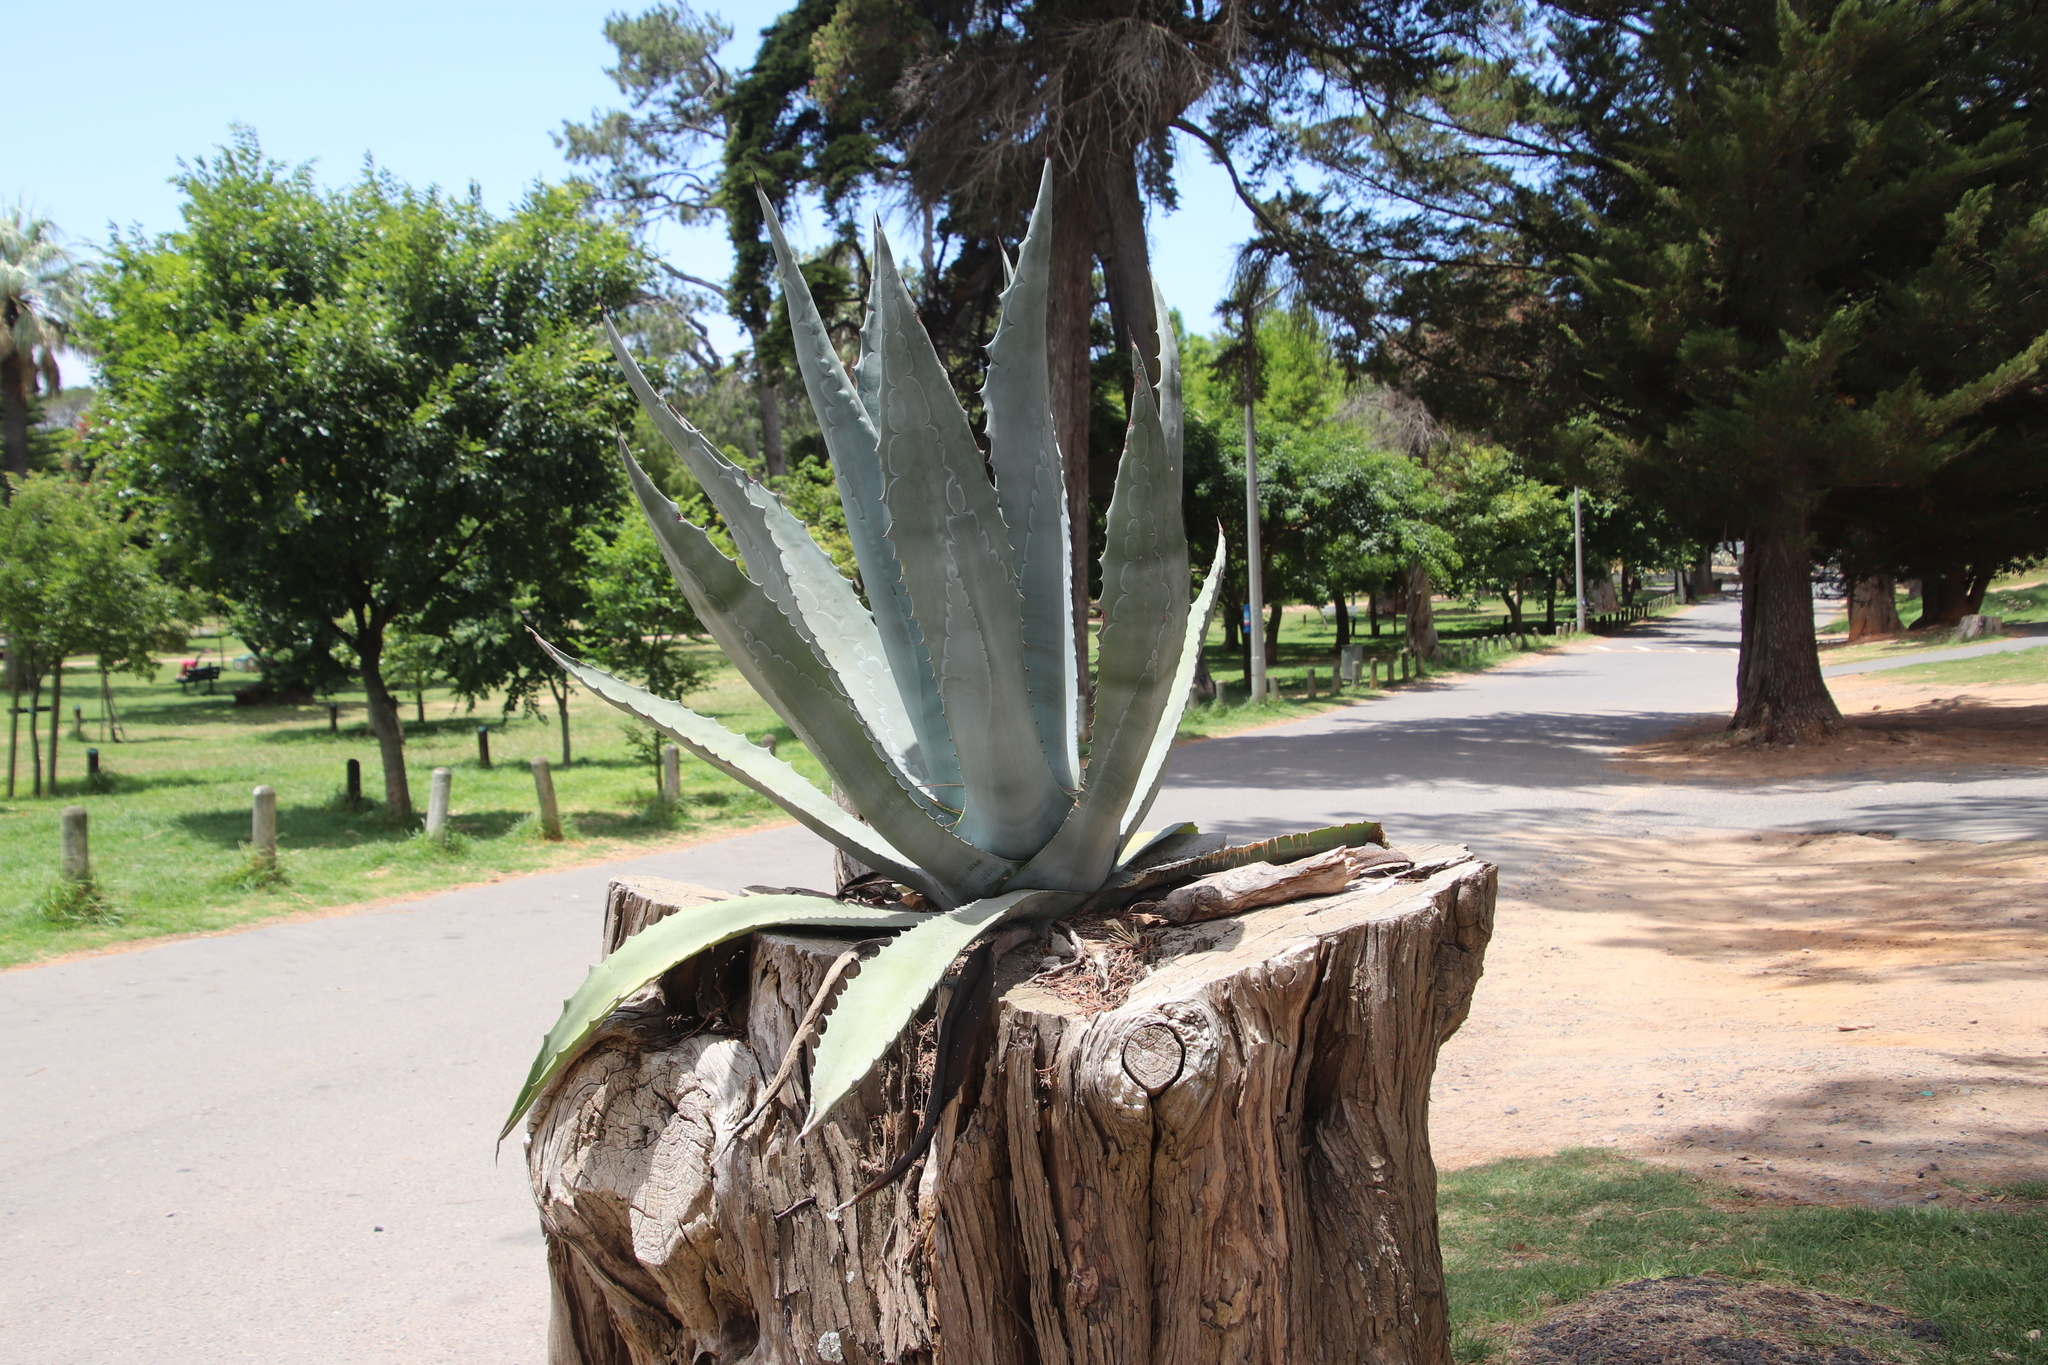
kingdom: Plantae
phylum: Tracheophyta
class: Liliopsida
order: Asparagales
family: Asparagaceae
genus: Agave
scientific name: Agave americana
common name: Centuryplant
